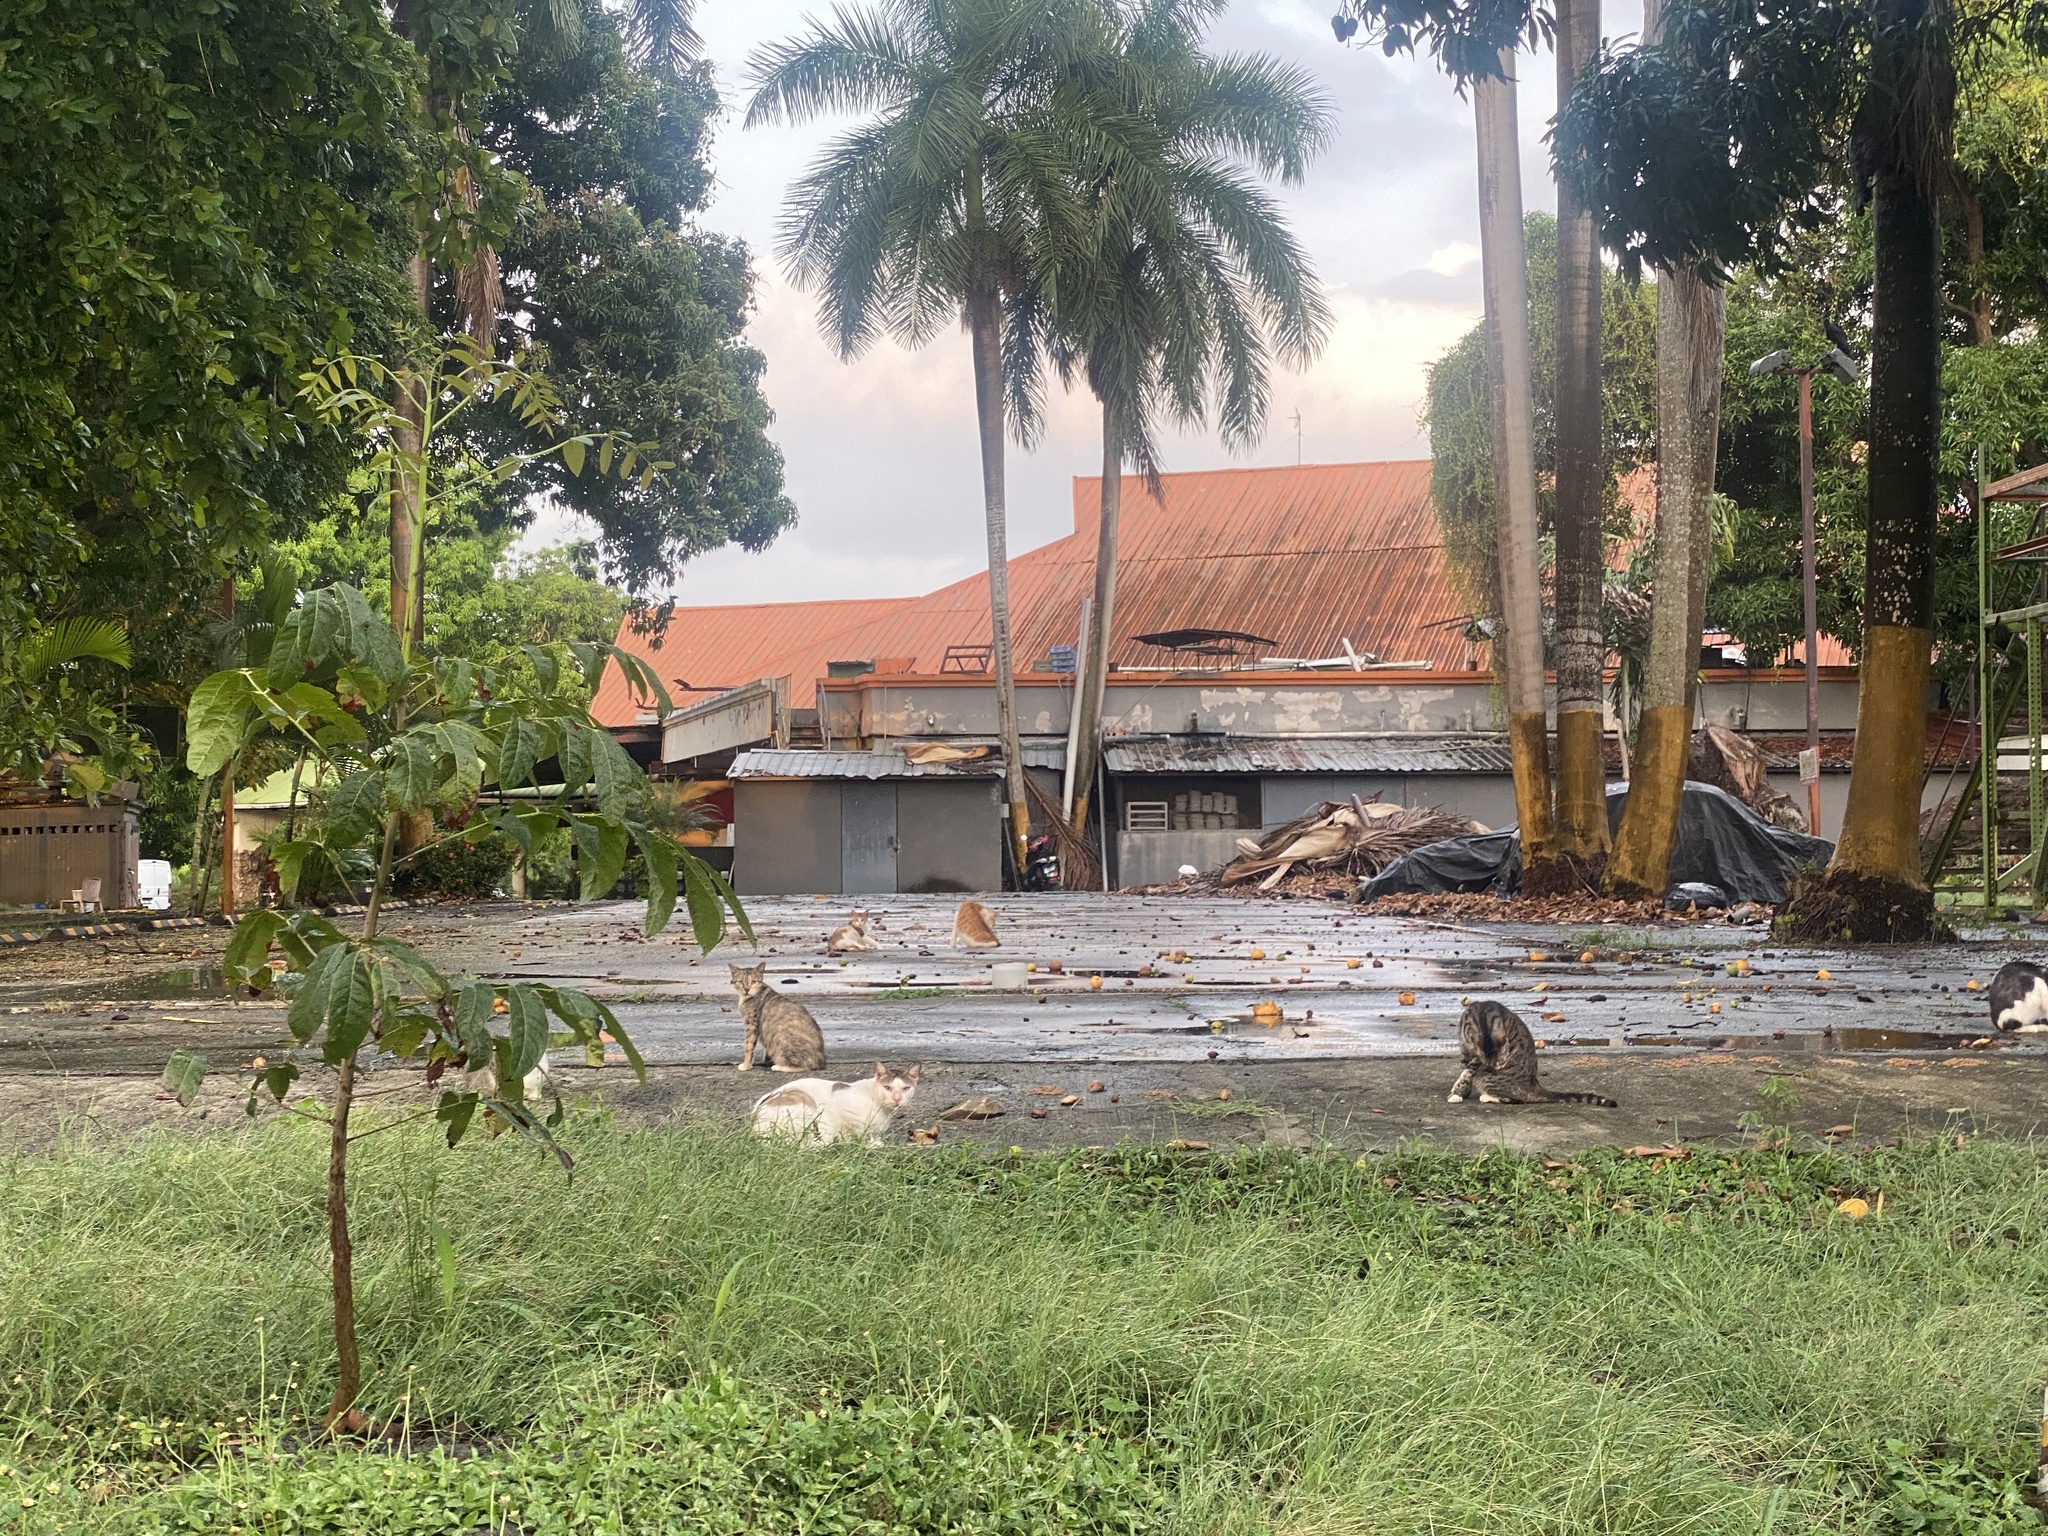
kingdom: Animalia
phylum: Chordata
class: Mammalia
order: Carnivora
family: Felidae
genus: Felis
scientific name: Felis catus
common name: Domestic cat
